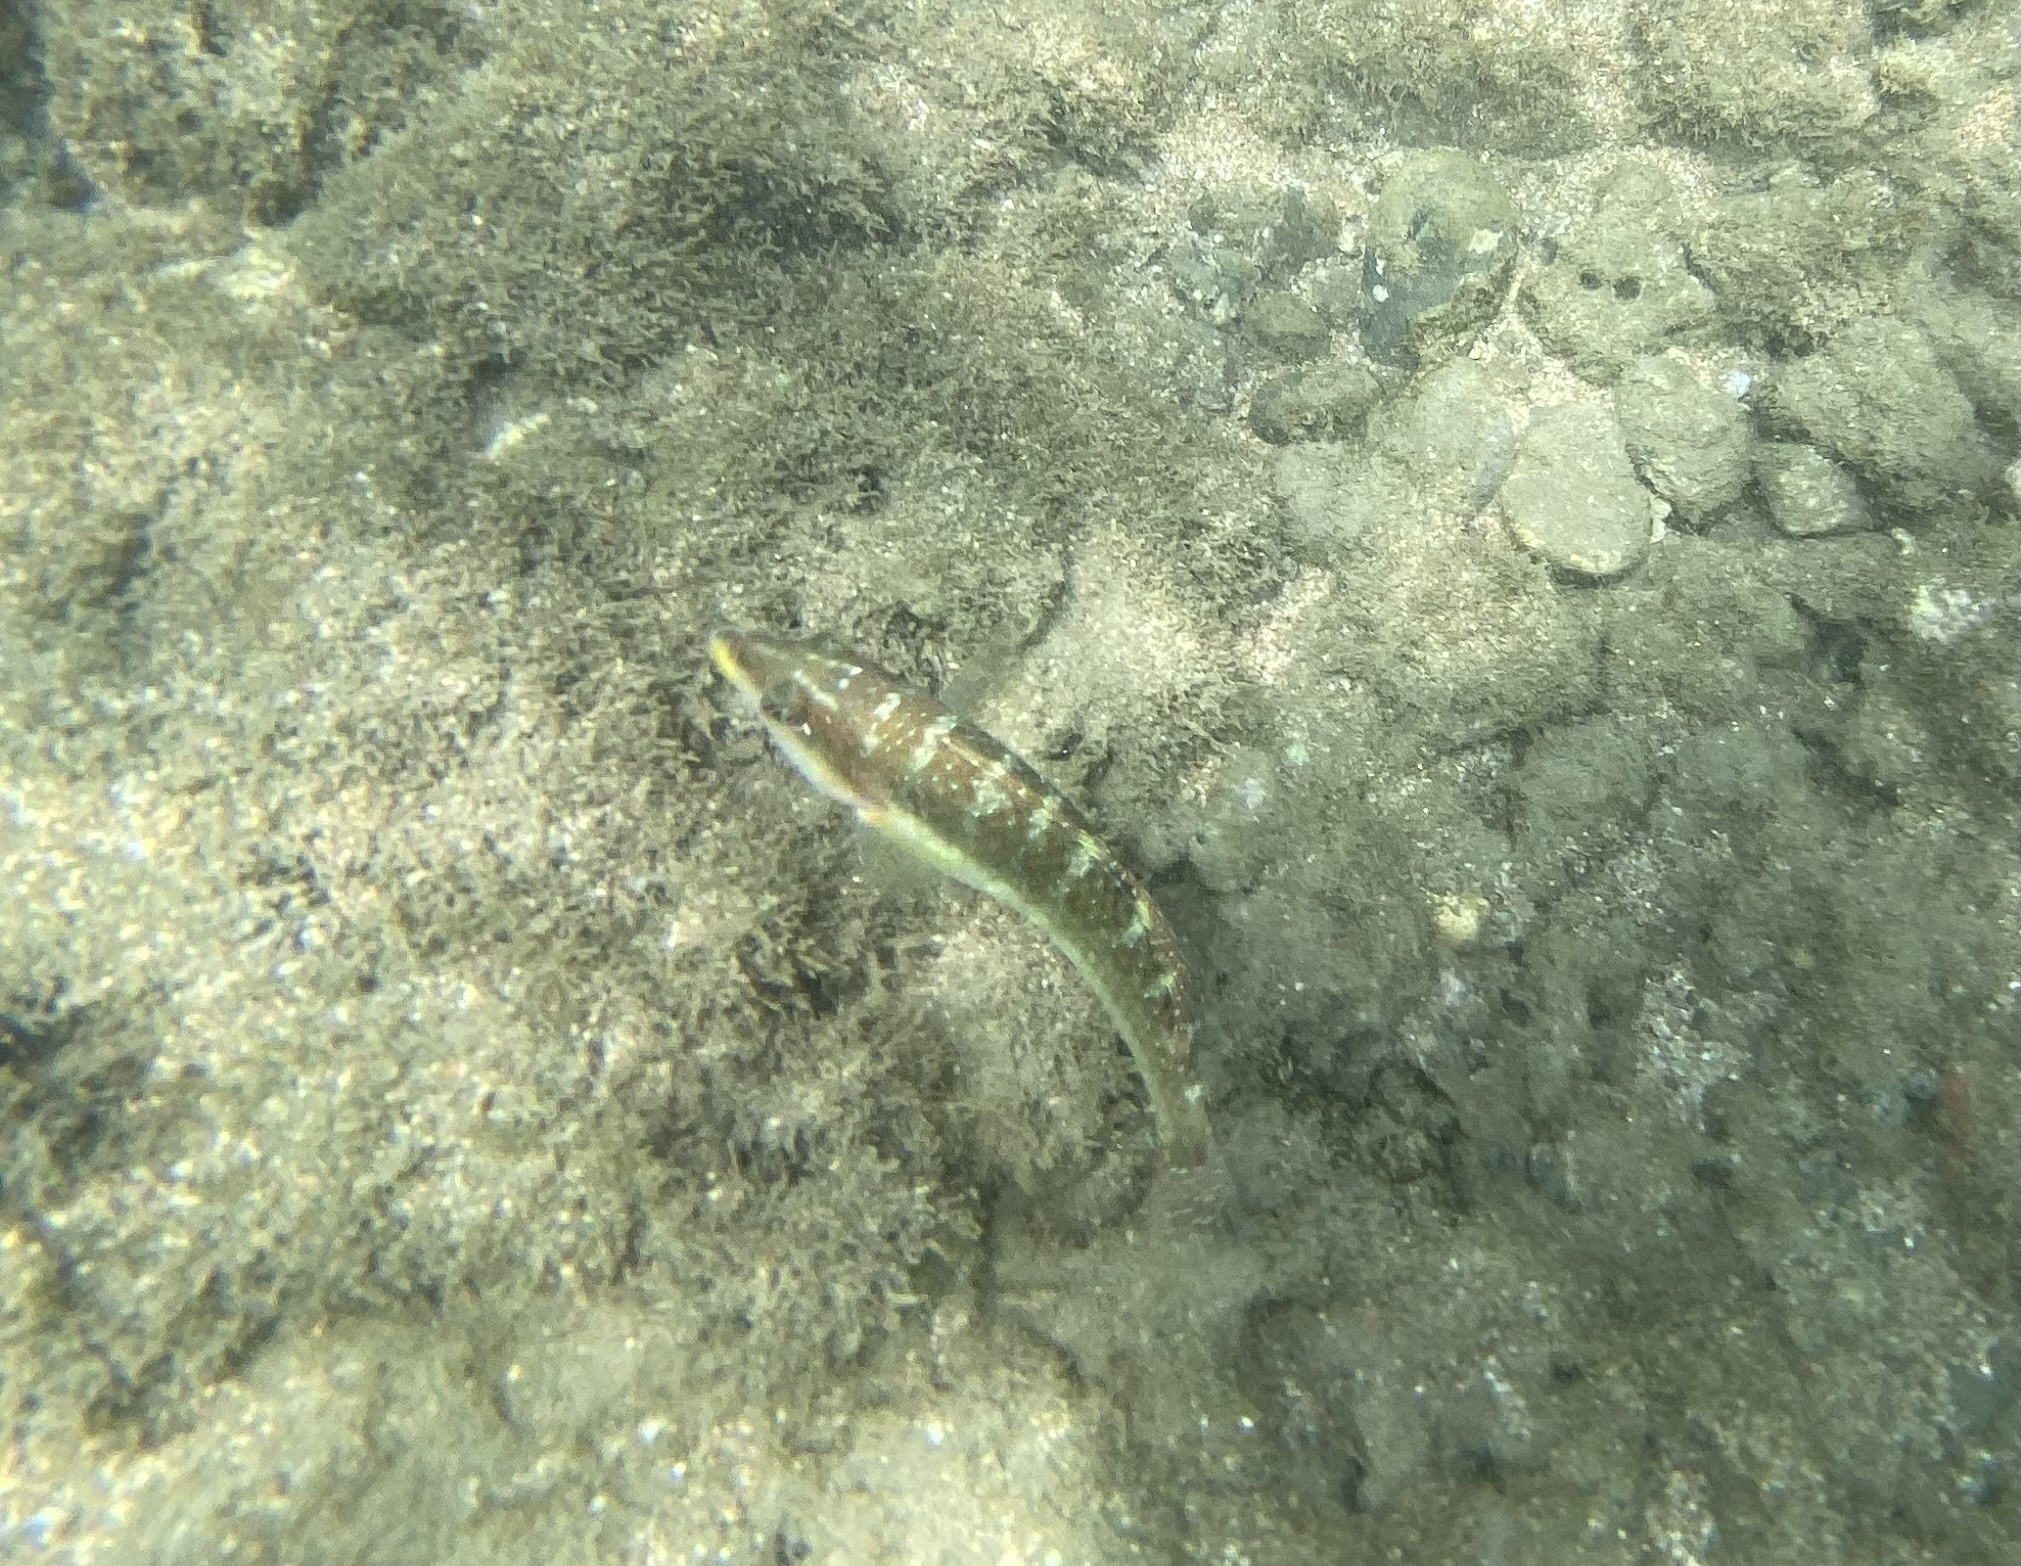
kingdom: Animalia
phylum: Chordata
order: Perciformes
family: Labridae
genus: Halichoeres
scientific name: Halichoeres notospilus
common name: Banded wrasse
